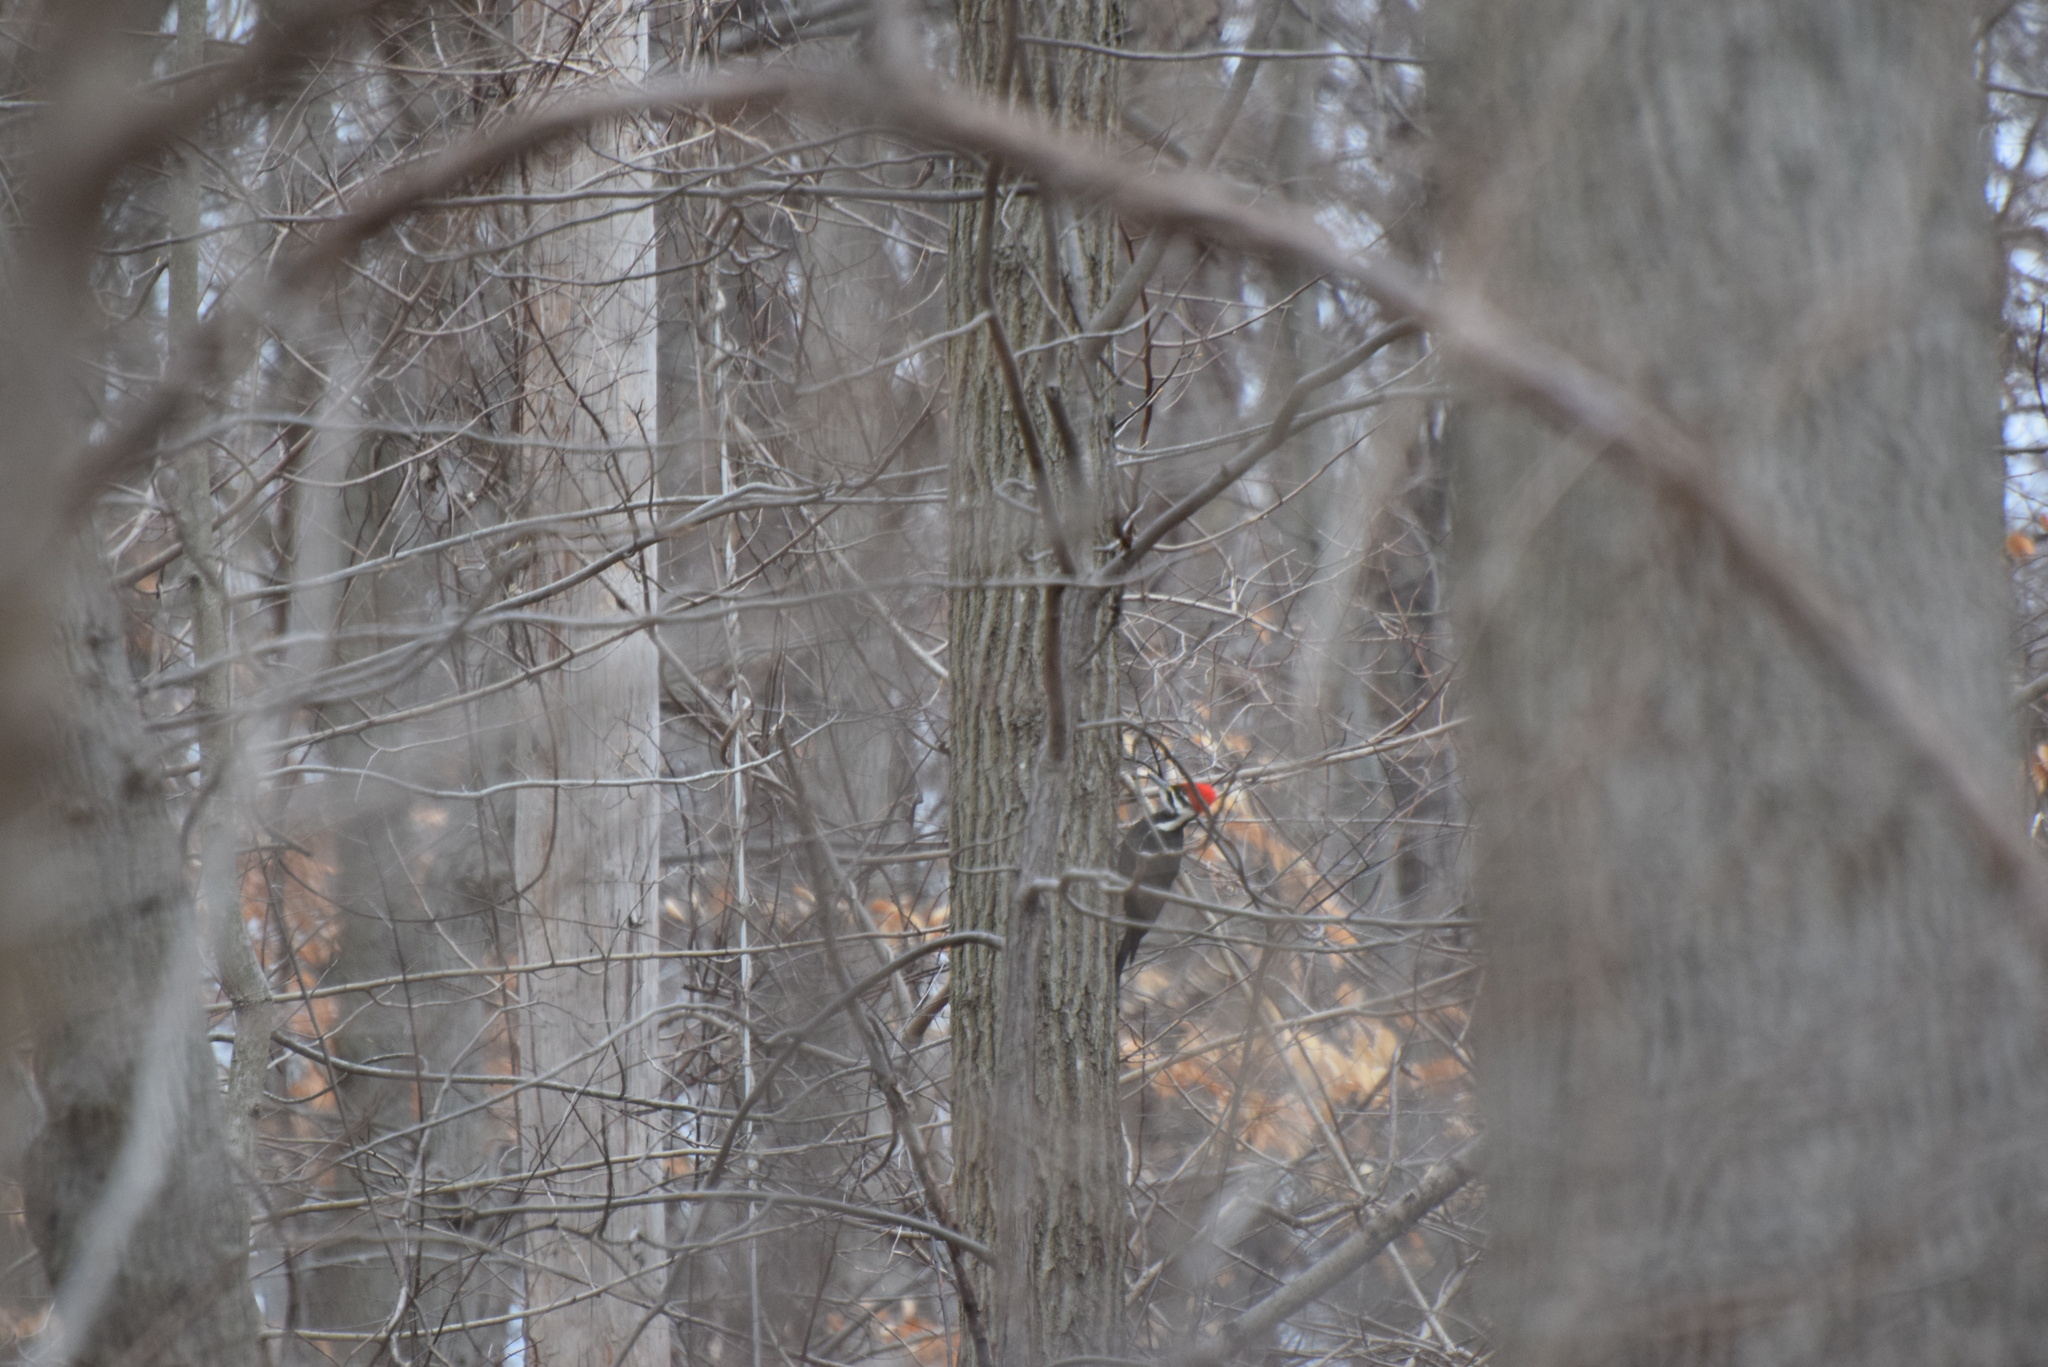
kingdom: Animalia
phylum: Chordata
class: Aves
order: Piciformes
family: Picidae
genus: Dryocopus
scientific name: Dryocopus pileatus
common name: Pileated woodpecker
